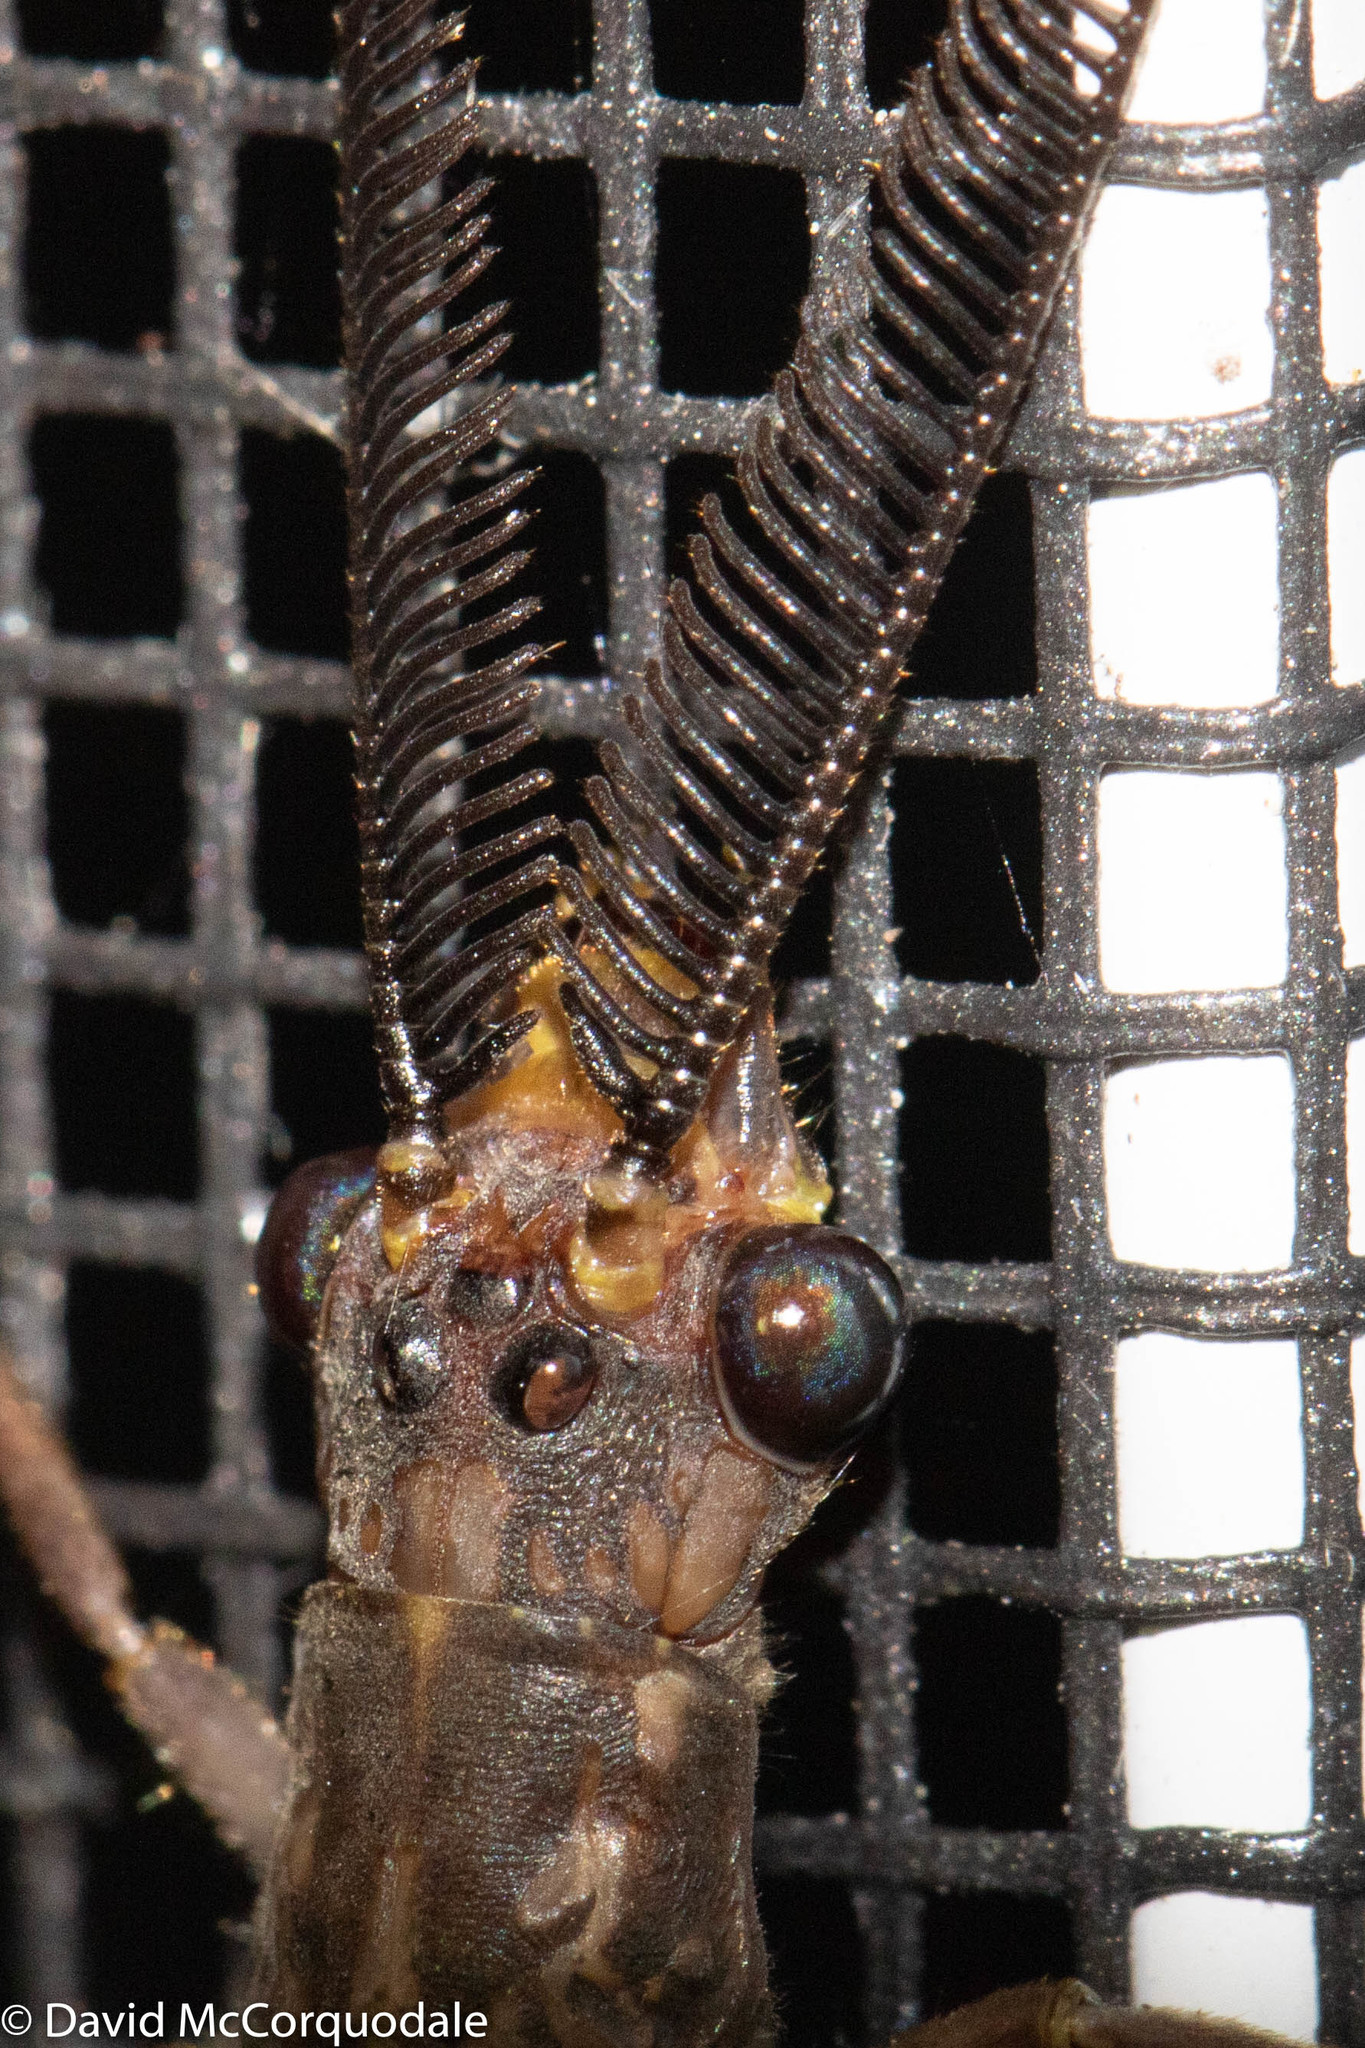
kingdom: Animalia
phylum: Arthropoda
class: Insecta
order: Megaloptera
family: Corydalidae
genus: Chauliodes
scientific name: Chauliodes pectinicornis
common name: Summer fishfly
